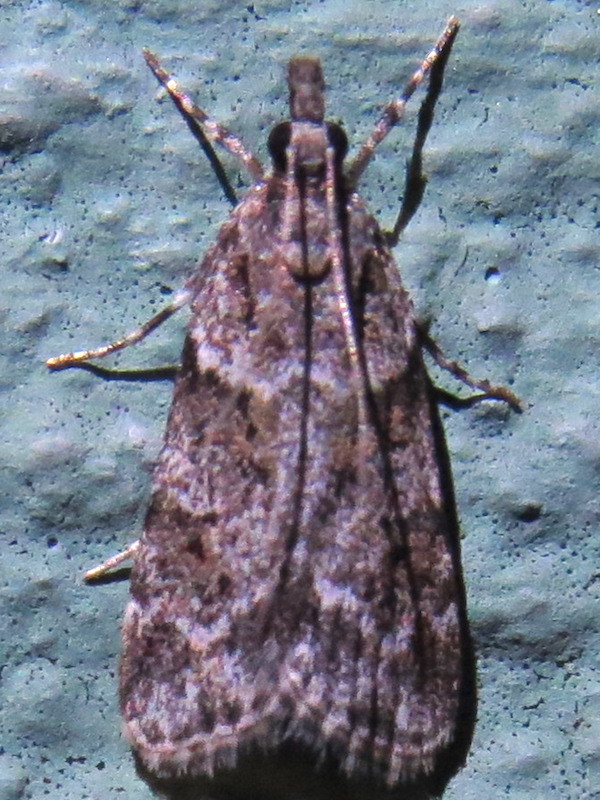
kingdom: Animalia
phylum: Arthropoda
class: Insecta
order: Lepidoptera
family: Crambidae
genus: Scoparia
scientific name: Scoparia biplagialis
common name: Double-striped scoparia moth
